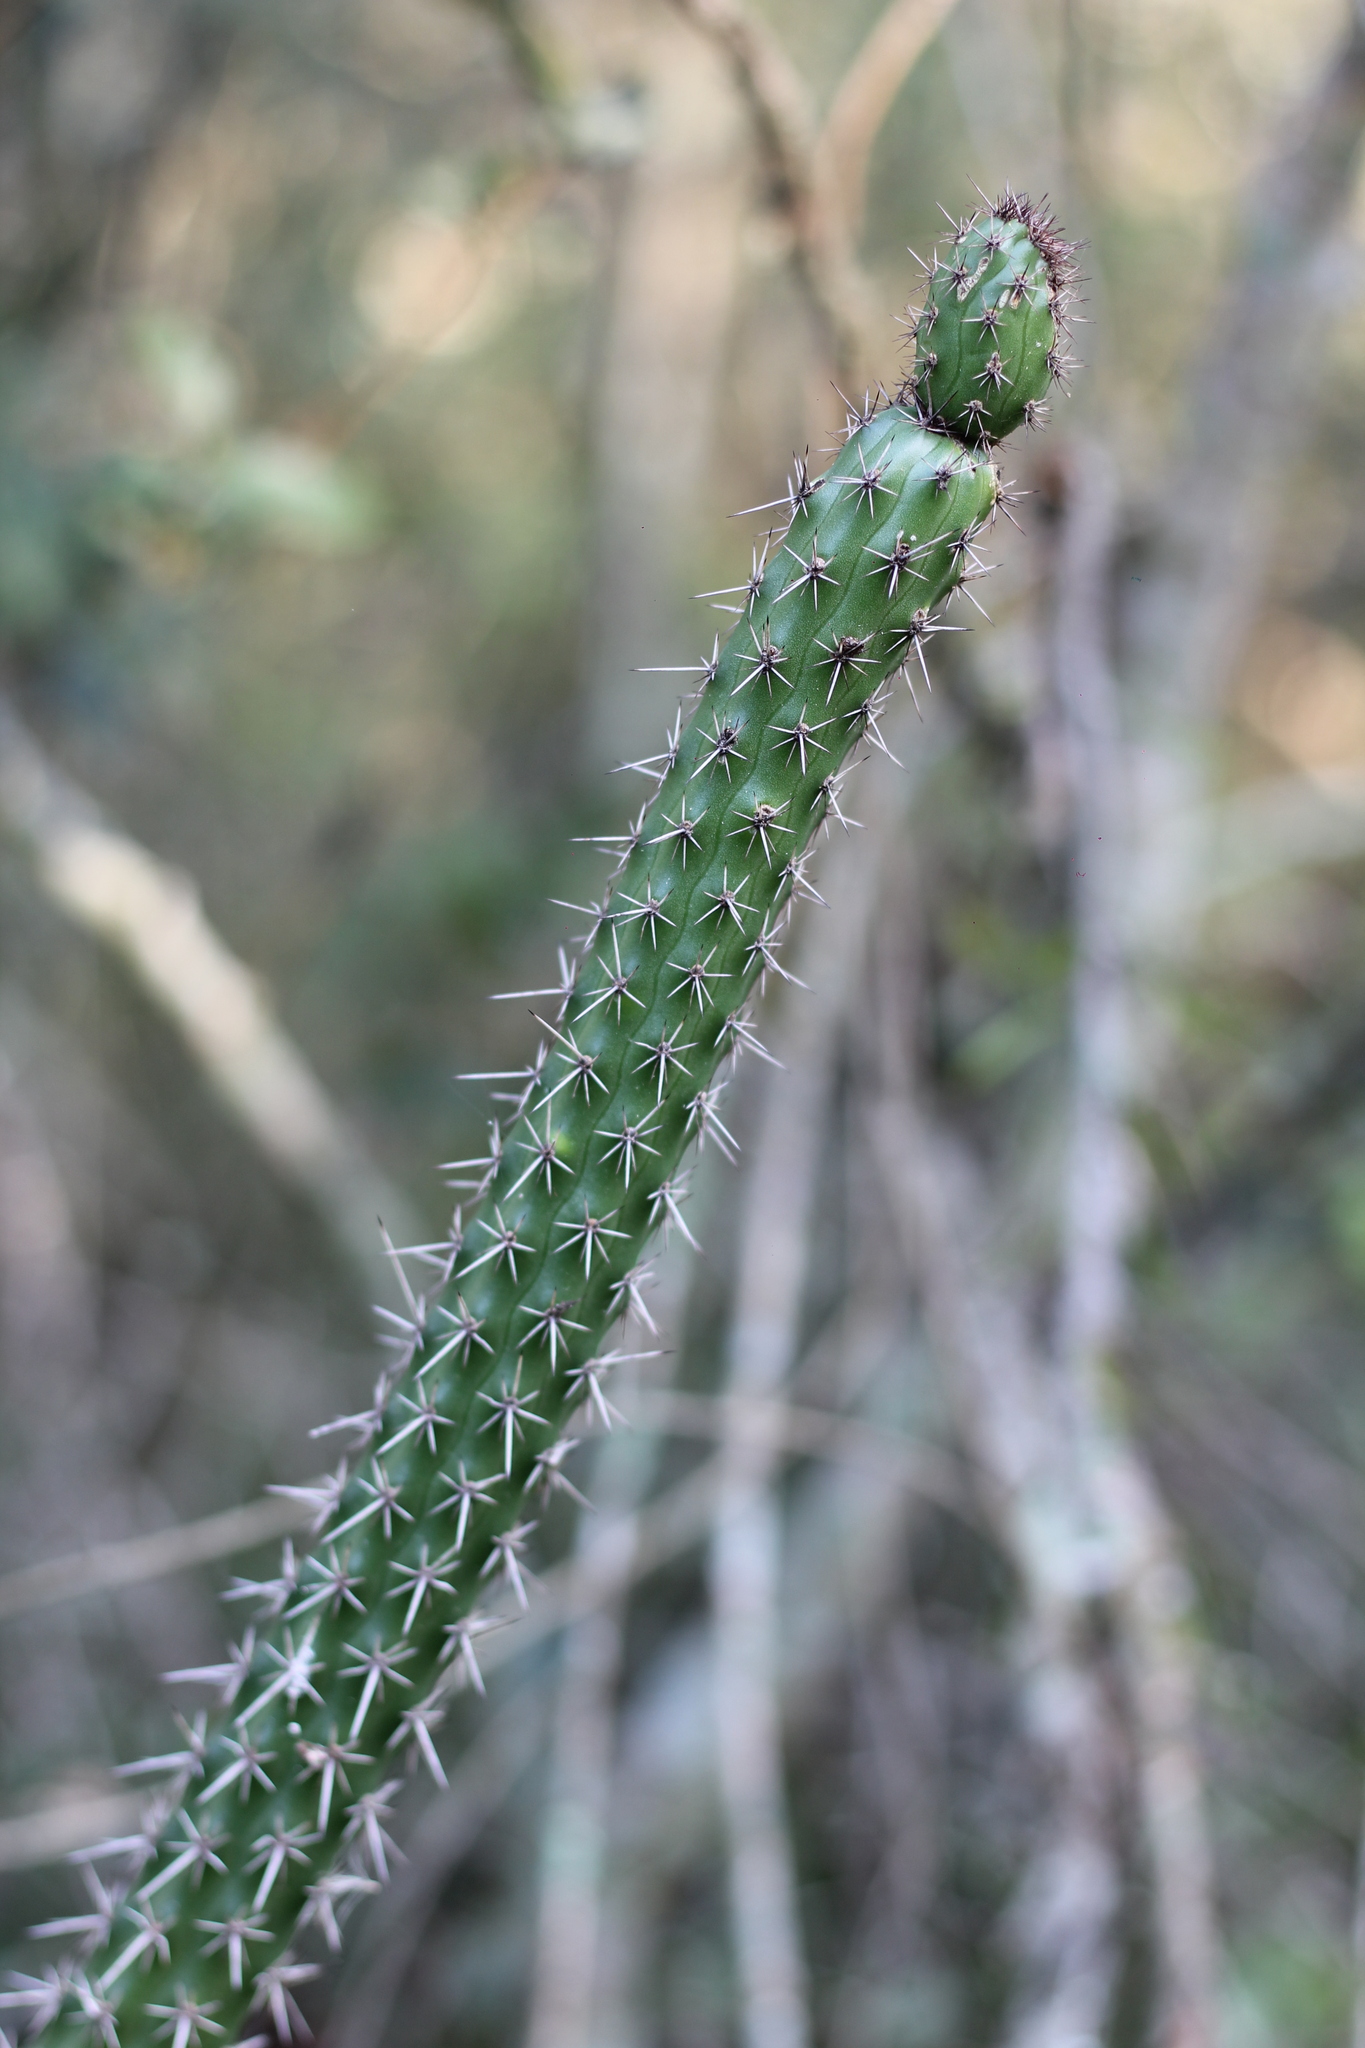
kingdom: Plantae
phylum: Tracheophyta
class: Magnoliopsida
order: Caryophyllales
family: Cactaceae
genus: Praecereus
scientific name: Praecereus euchlorus
